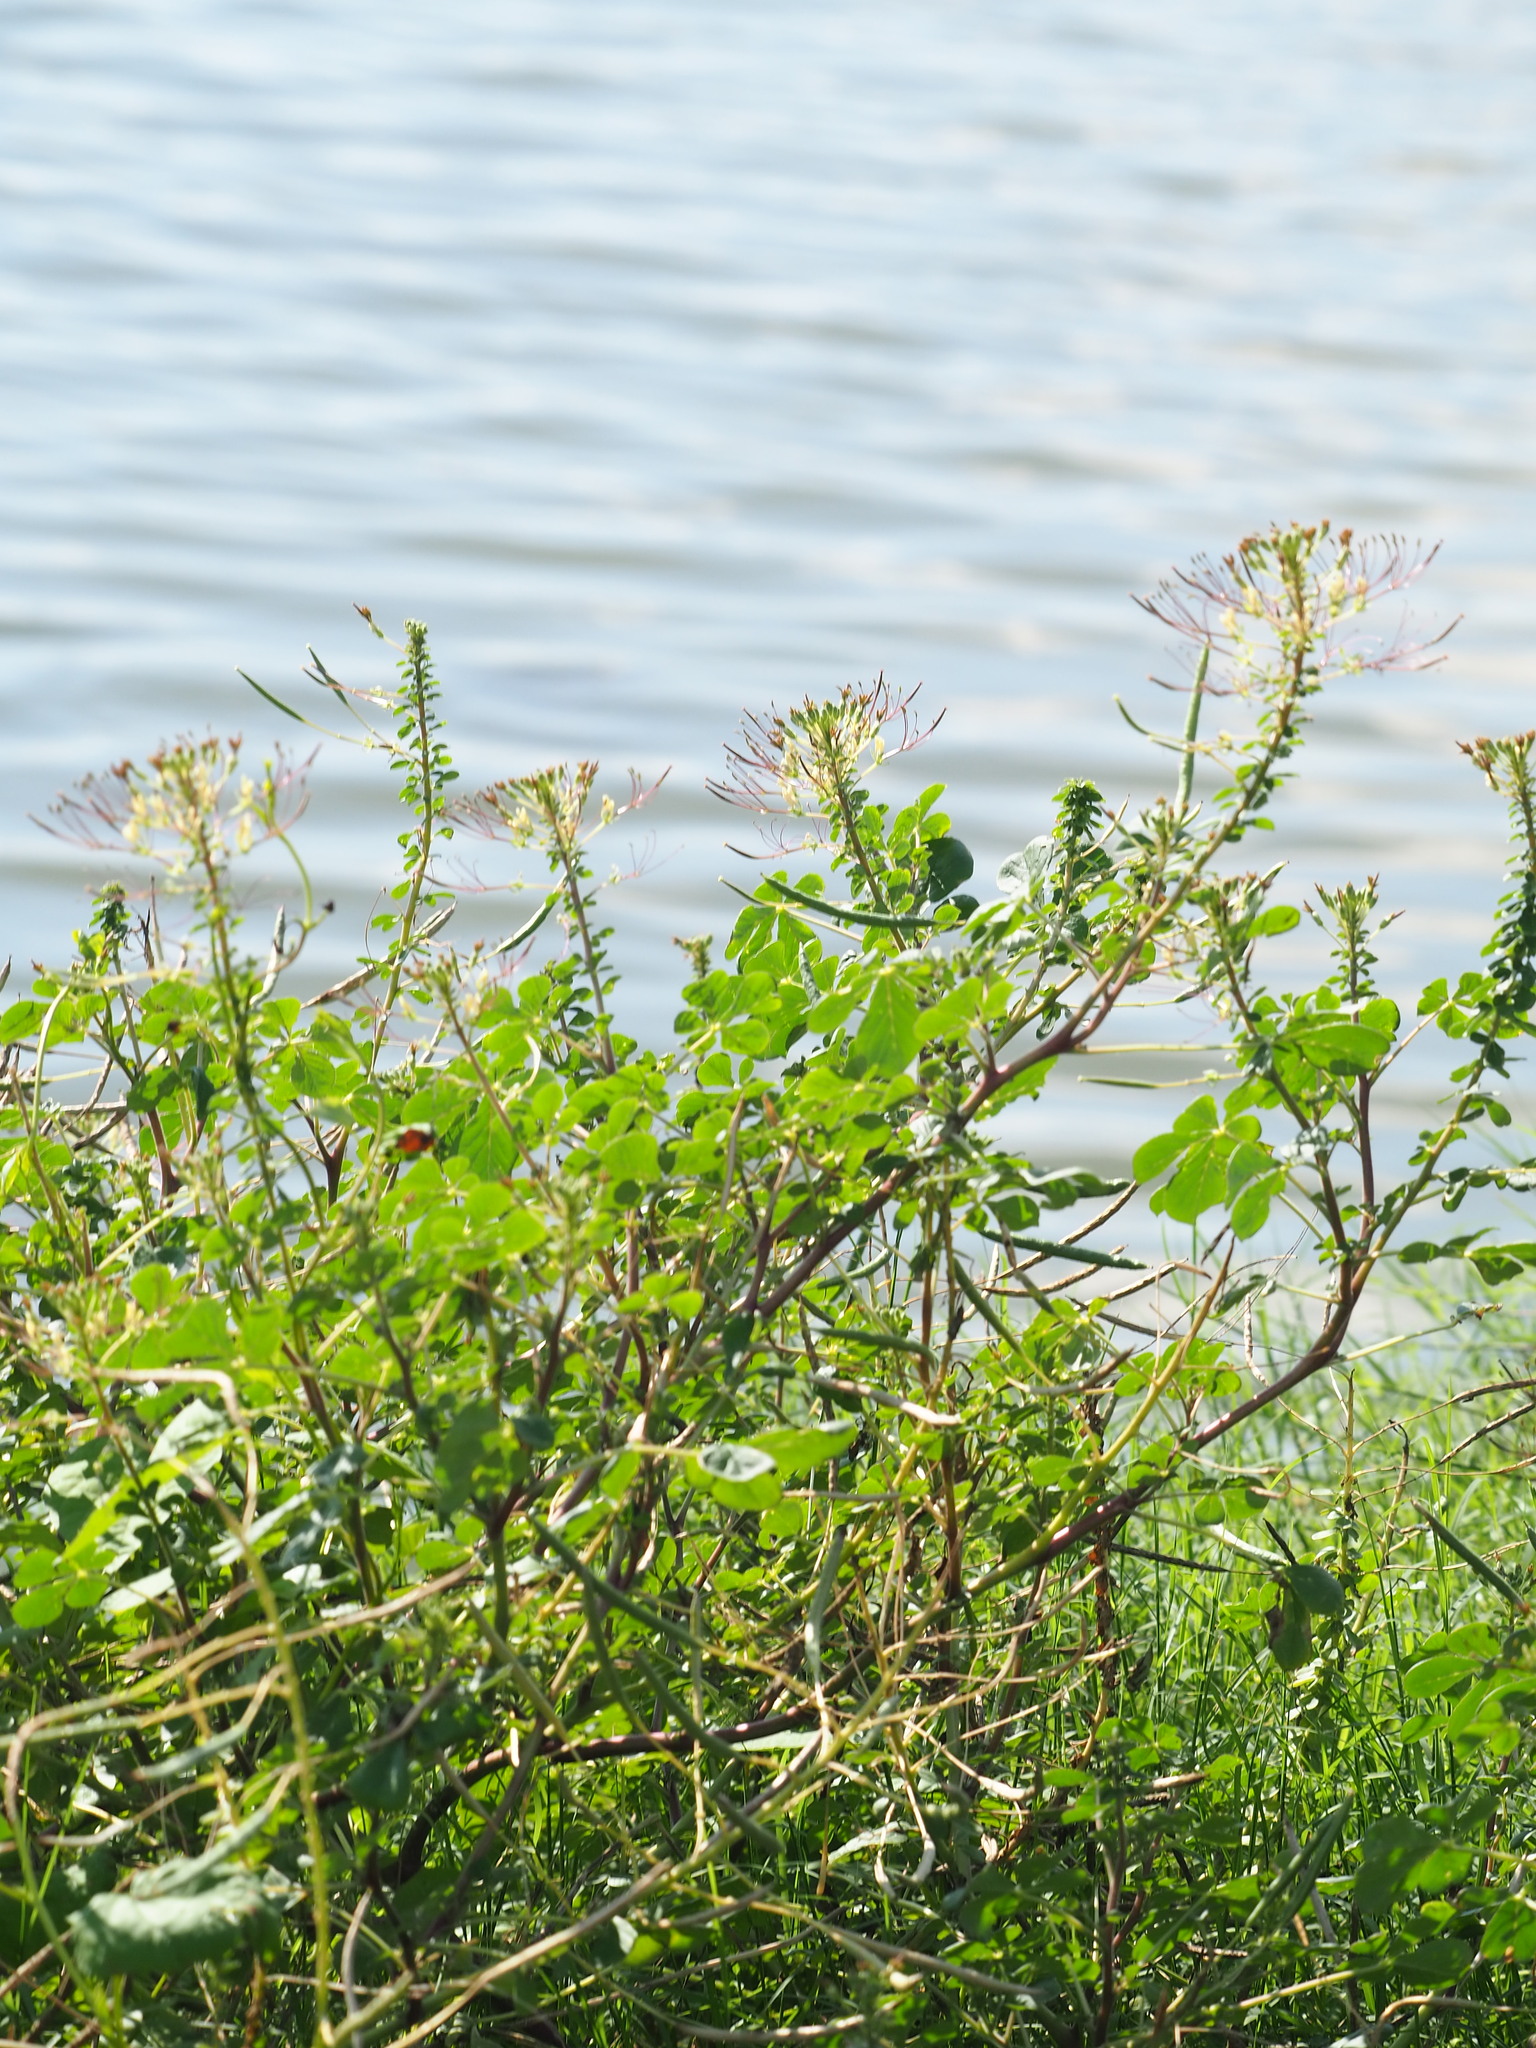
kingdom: Plantae
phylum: Tracheophyta
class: Magnoliopsida
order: Brassicales
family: Cleomaceae
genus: Gynandropsis
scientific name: Gynandropsis gynandra
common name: Spiderwisp
